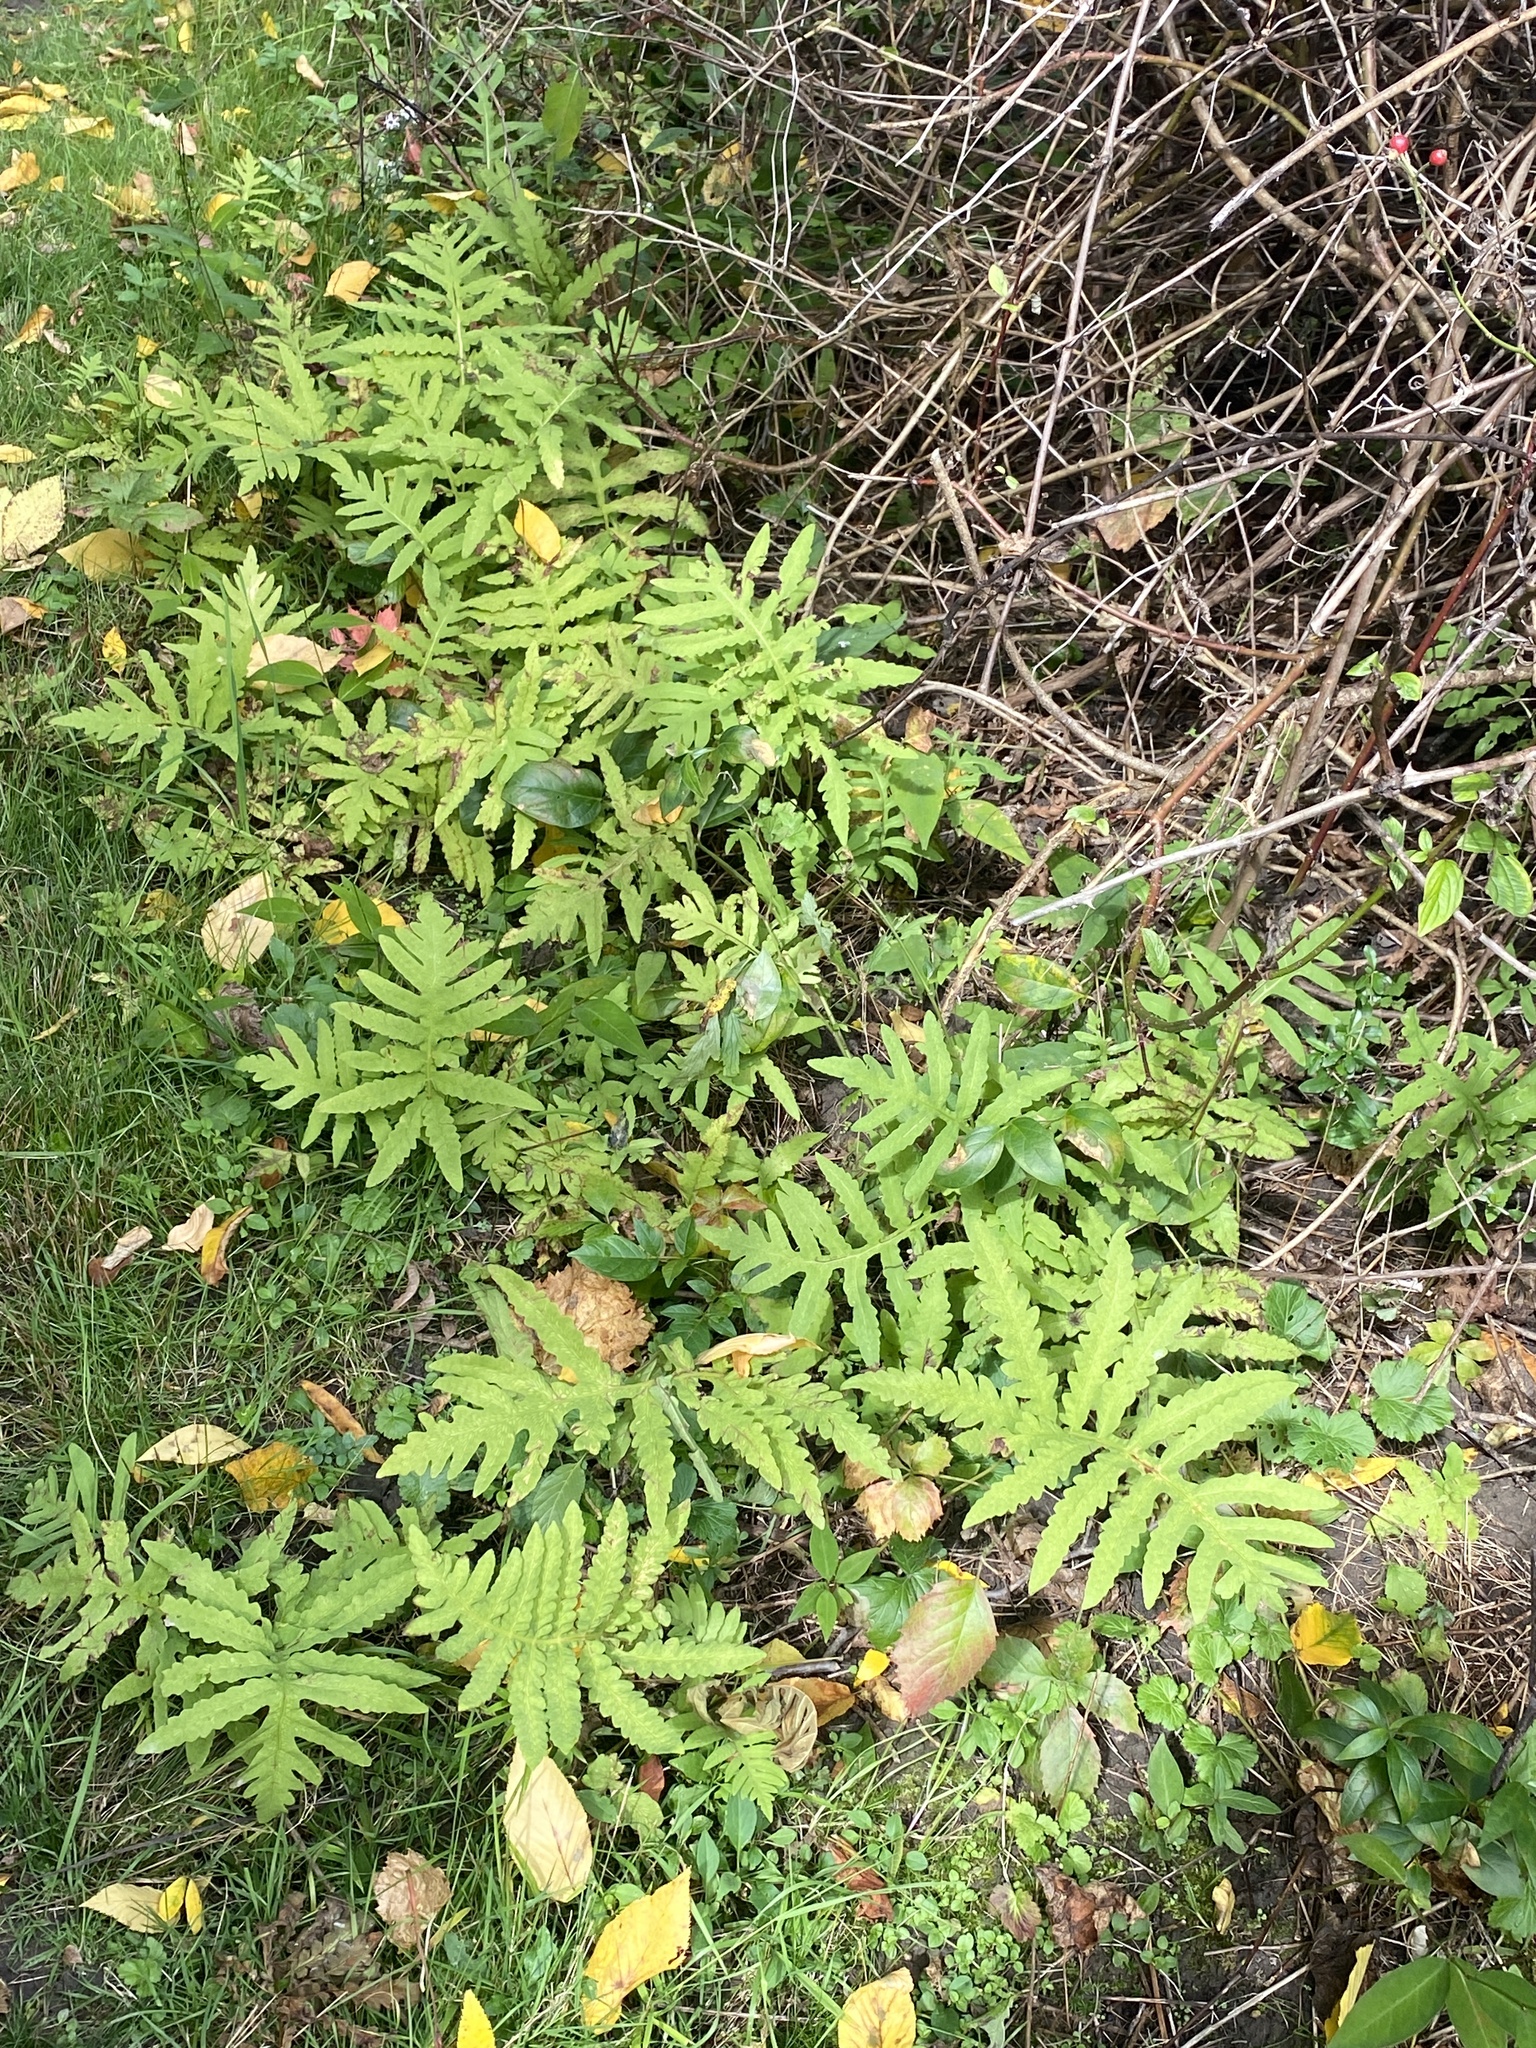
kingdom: Plantae
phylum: Tracheophyta
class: Polypodiopsida
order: Polypodiales
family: Onocleaceae
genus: Onoclea
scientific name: Onoclea sensibilis
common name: Sensitive fern
